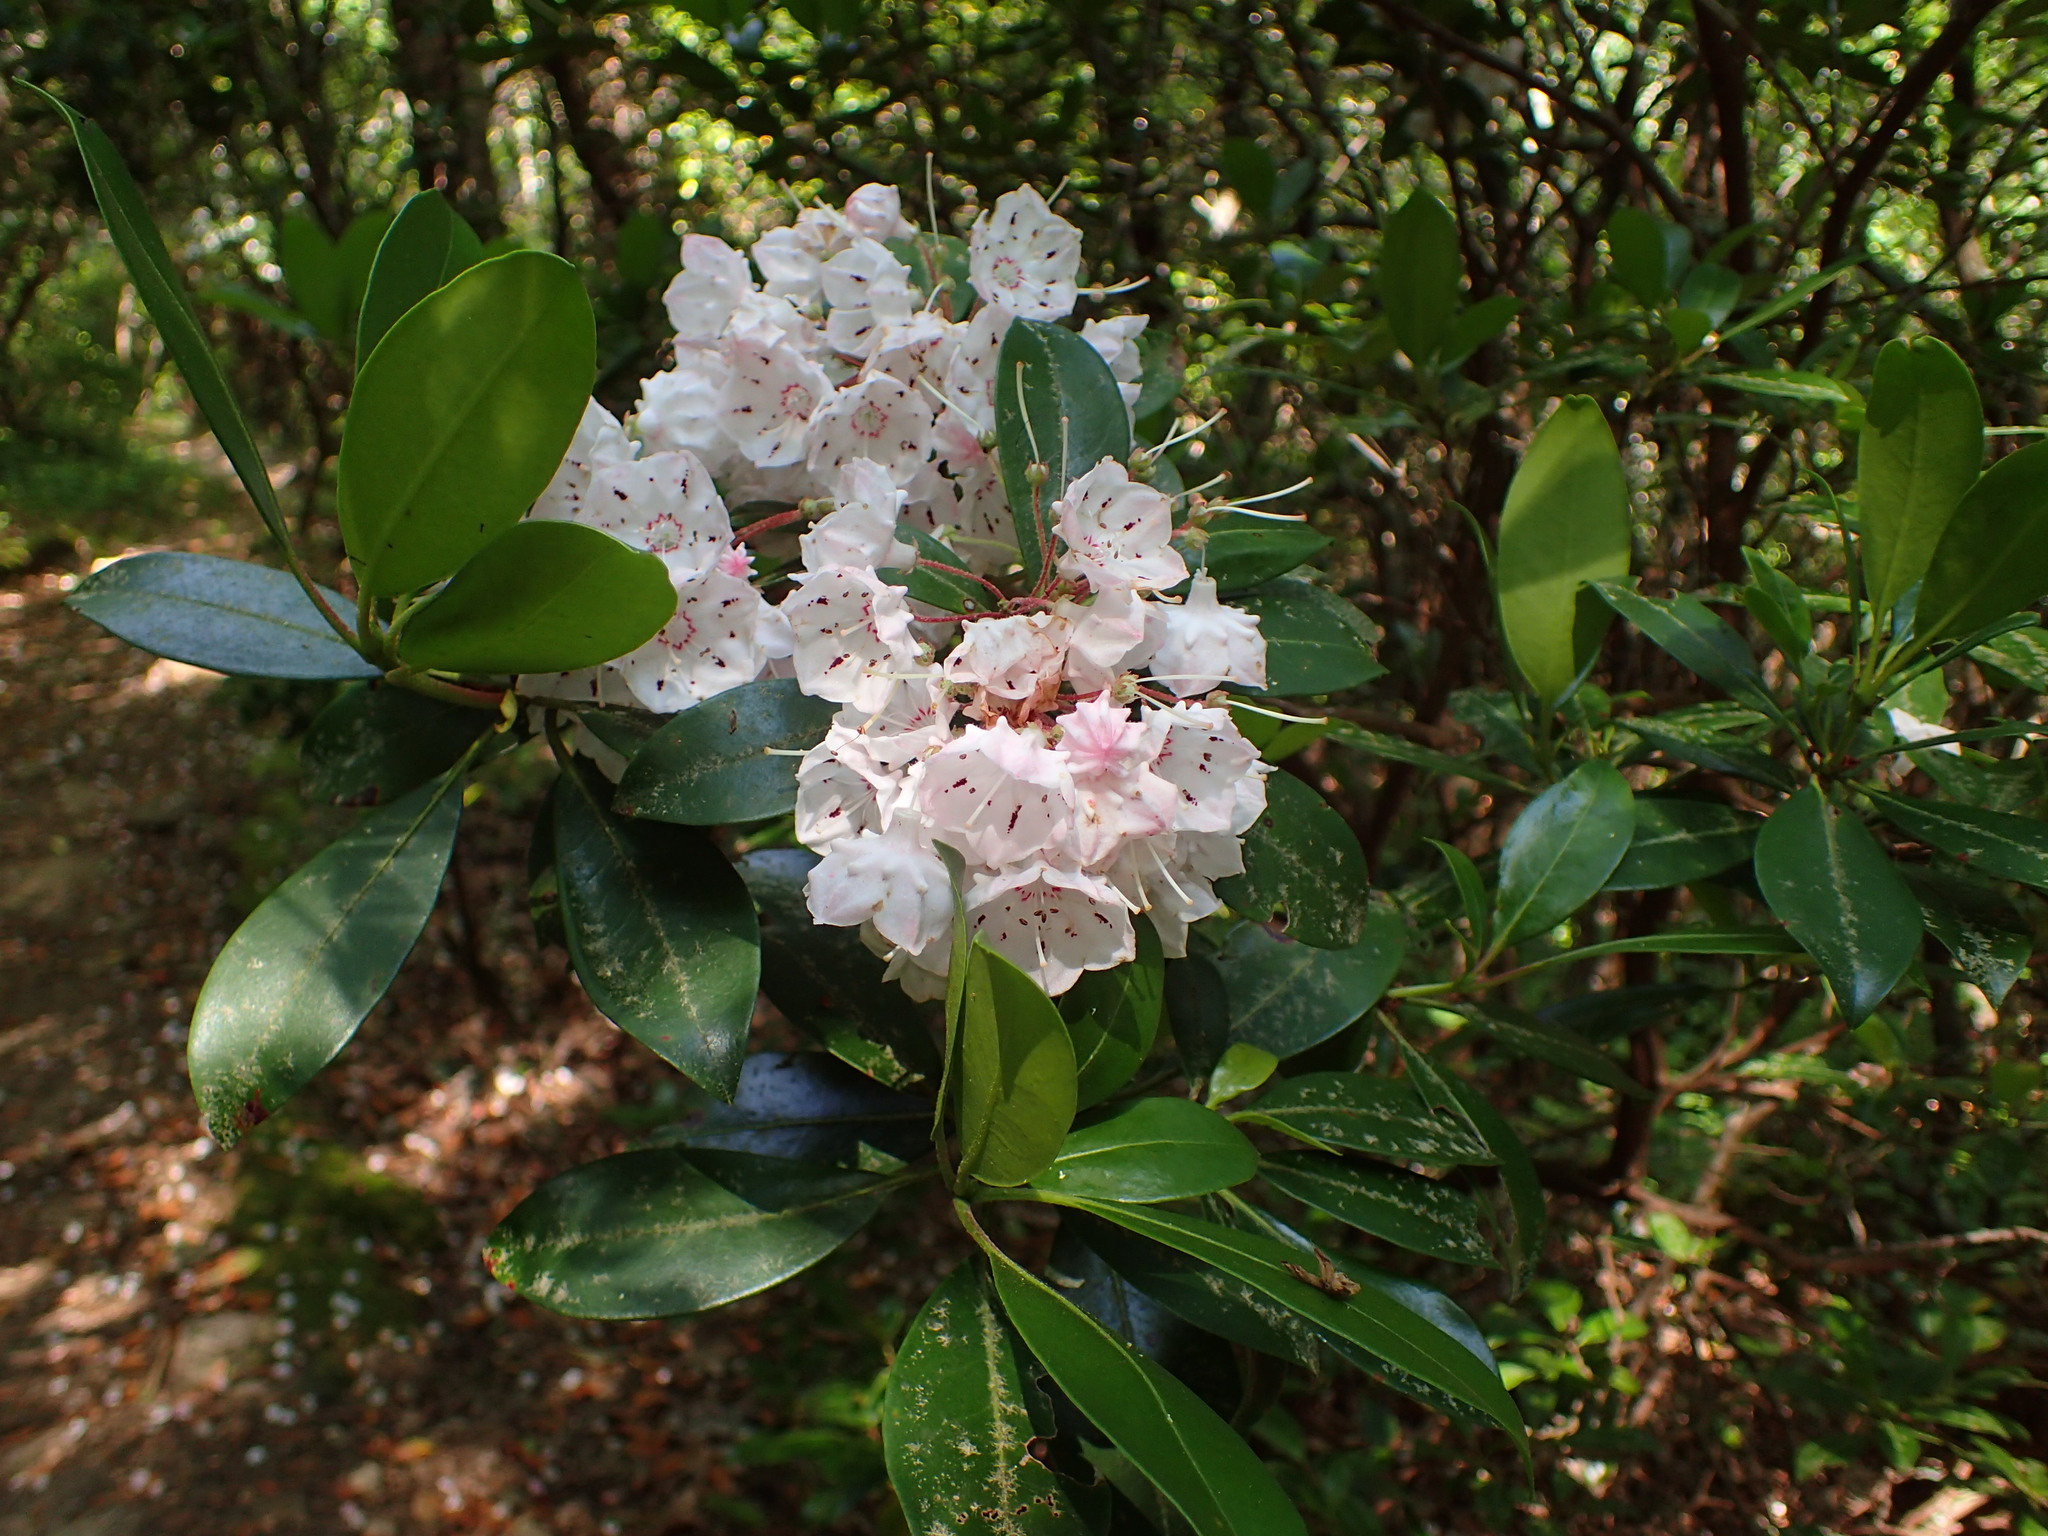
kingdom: Plantae
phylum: Tracheophyta
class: Magnoliopsida
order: Ericales
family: Ericaceae
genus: Kalmia
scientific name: Kalmia latifolia
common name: Mountain-laurel
